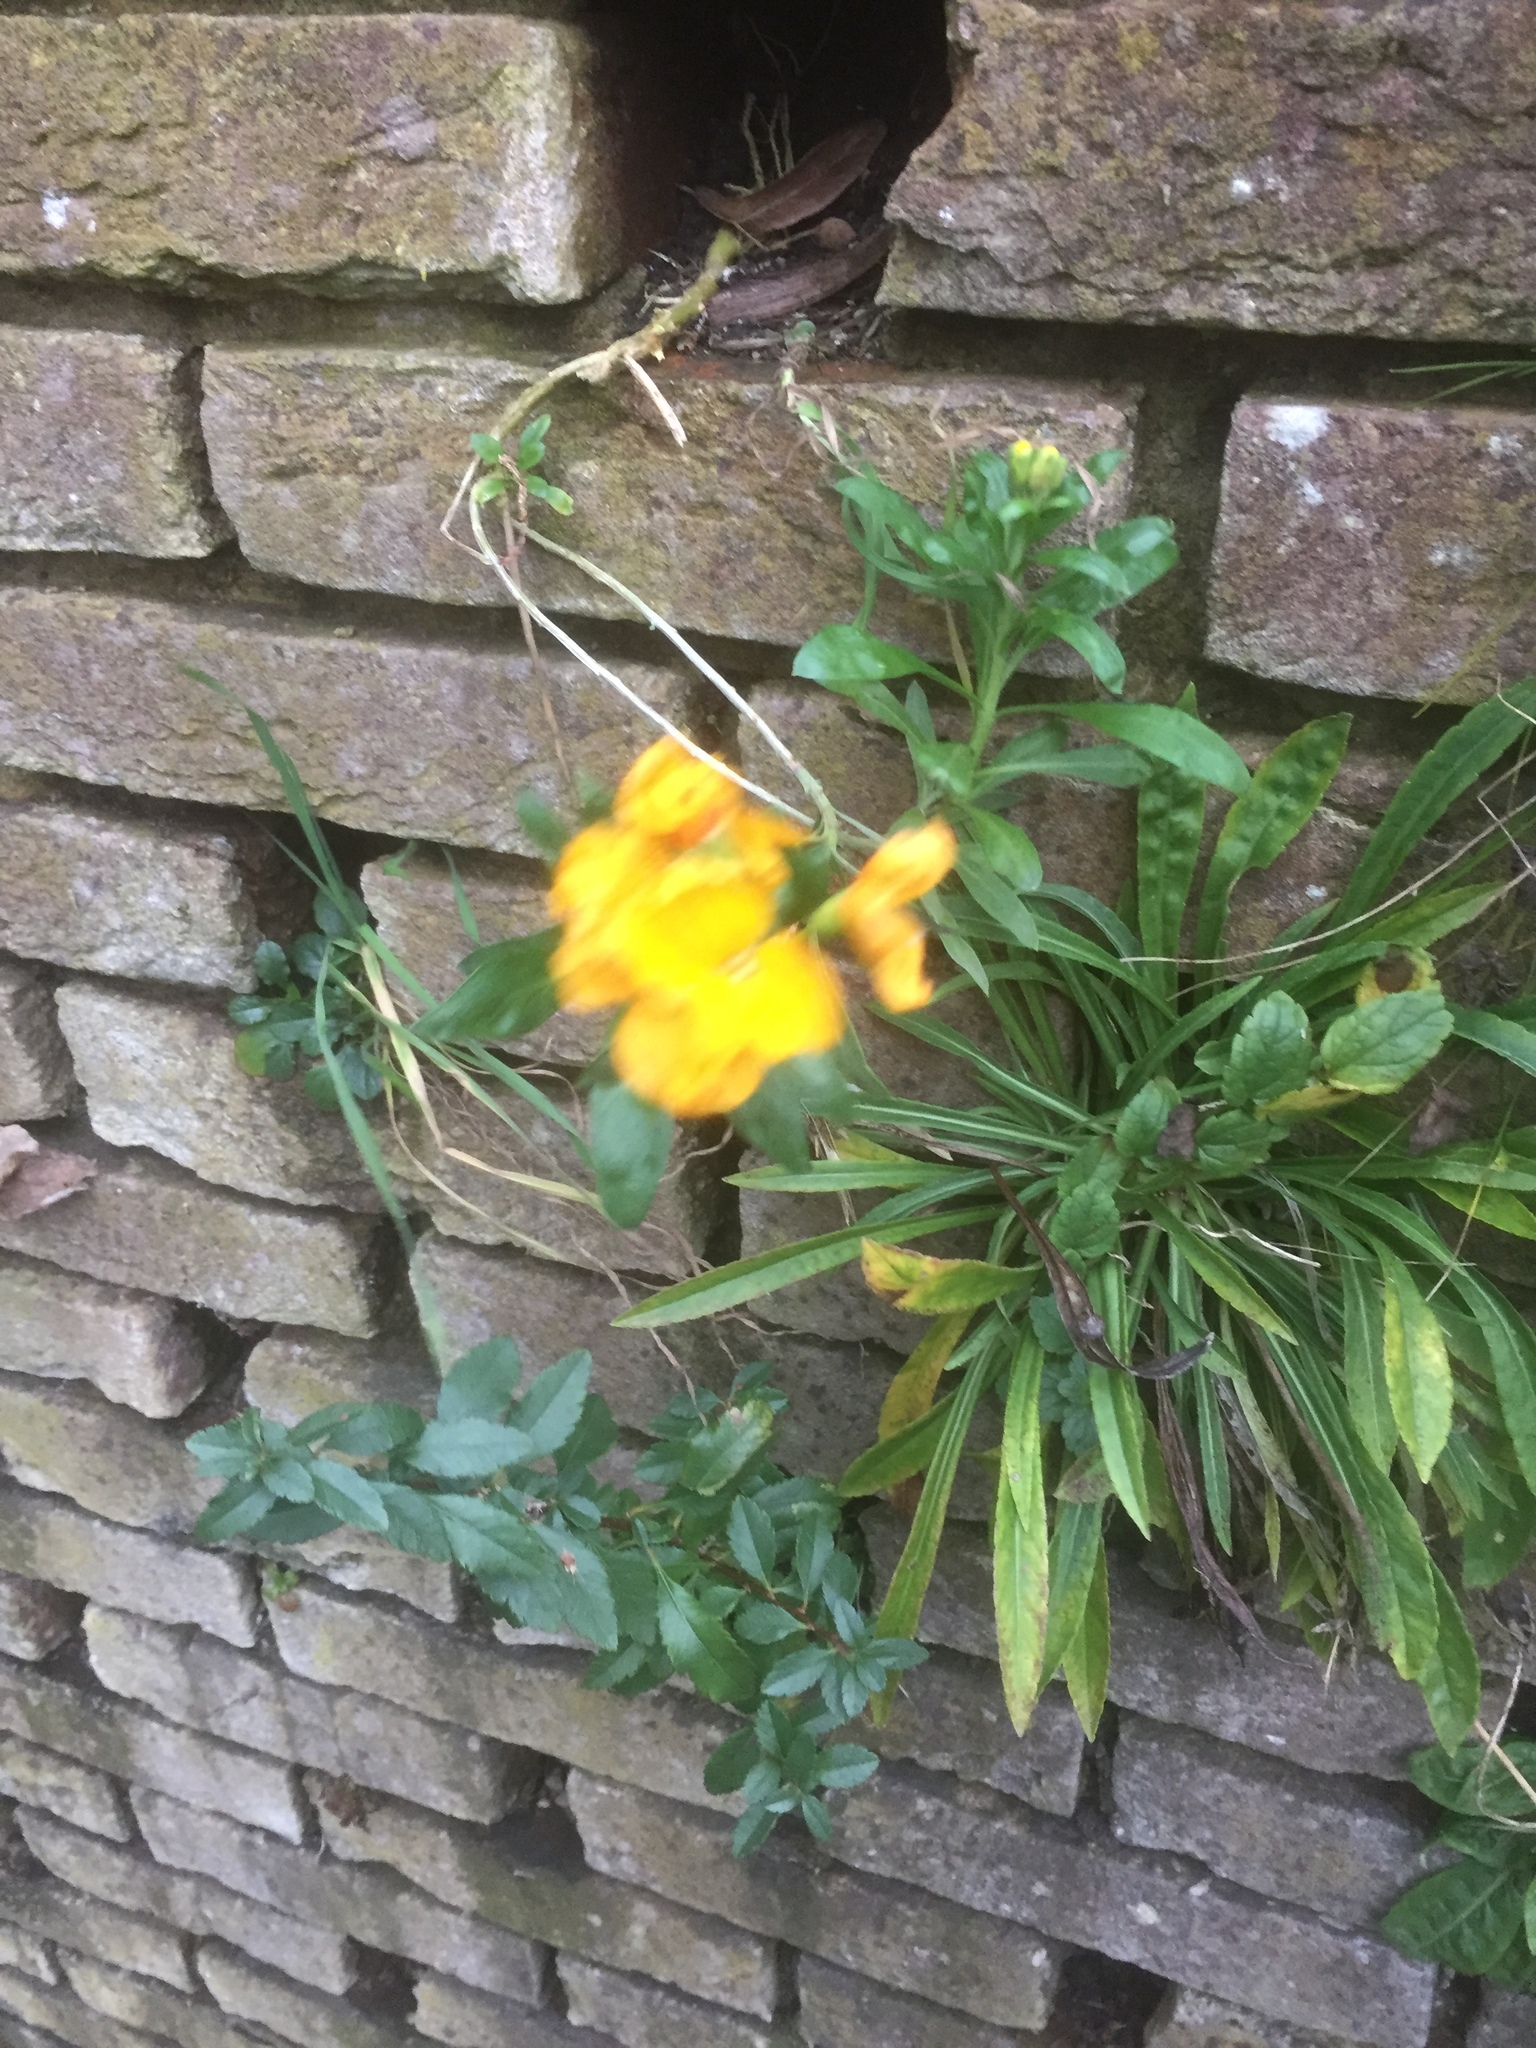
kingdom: Plantae
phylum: Tracheophyta
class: Magnoliopsida
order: Brassicales
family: Brassicaceae
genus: Erysimum
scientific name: Erysimum cheiri
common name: Wallflower
